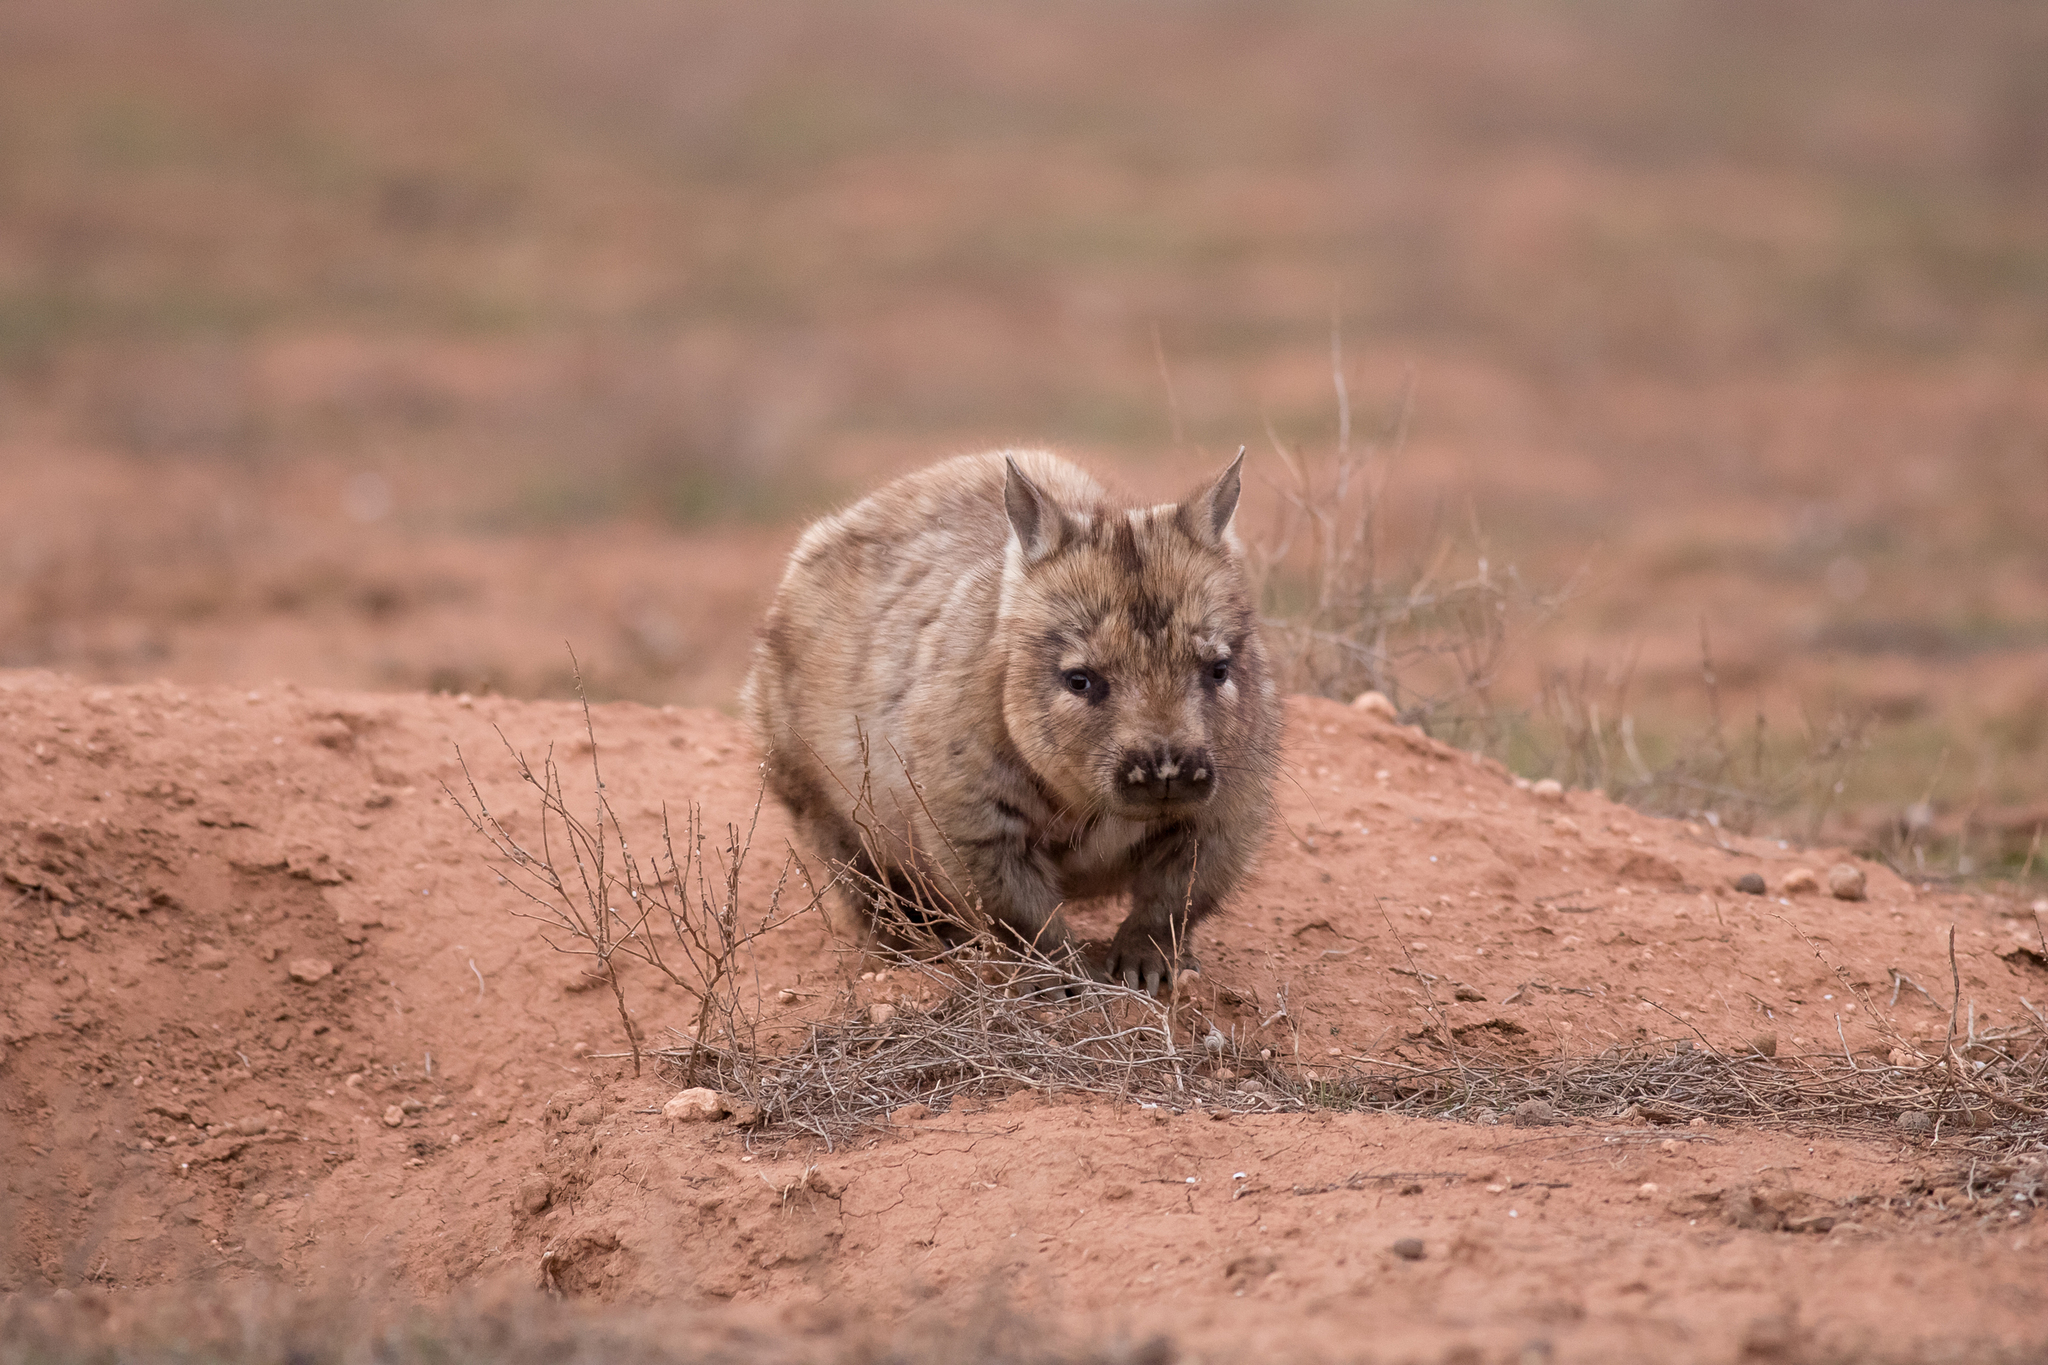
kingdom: Animalia
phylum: Chordata
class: Mammalia
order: Diprotodontia
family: Vombatidae
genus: Lasiorhinus
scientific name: Lasiorhinus latifrons
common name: Southern hairy-nosed wombat
